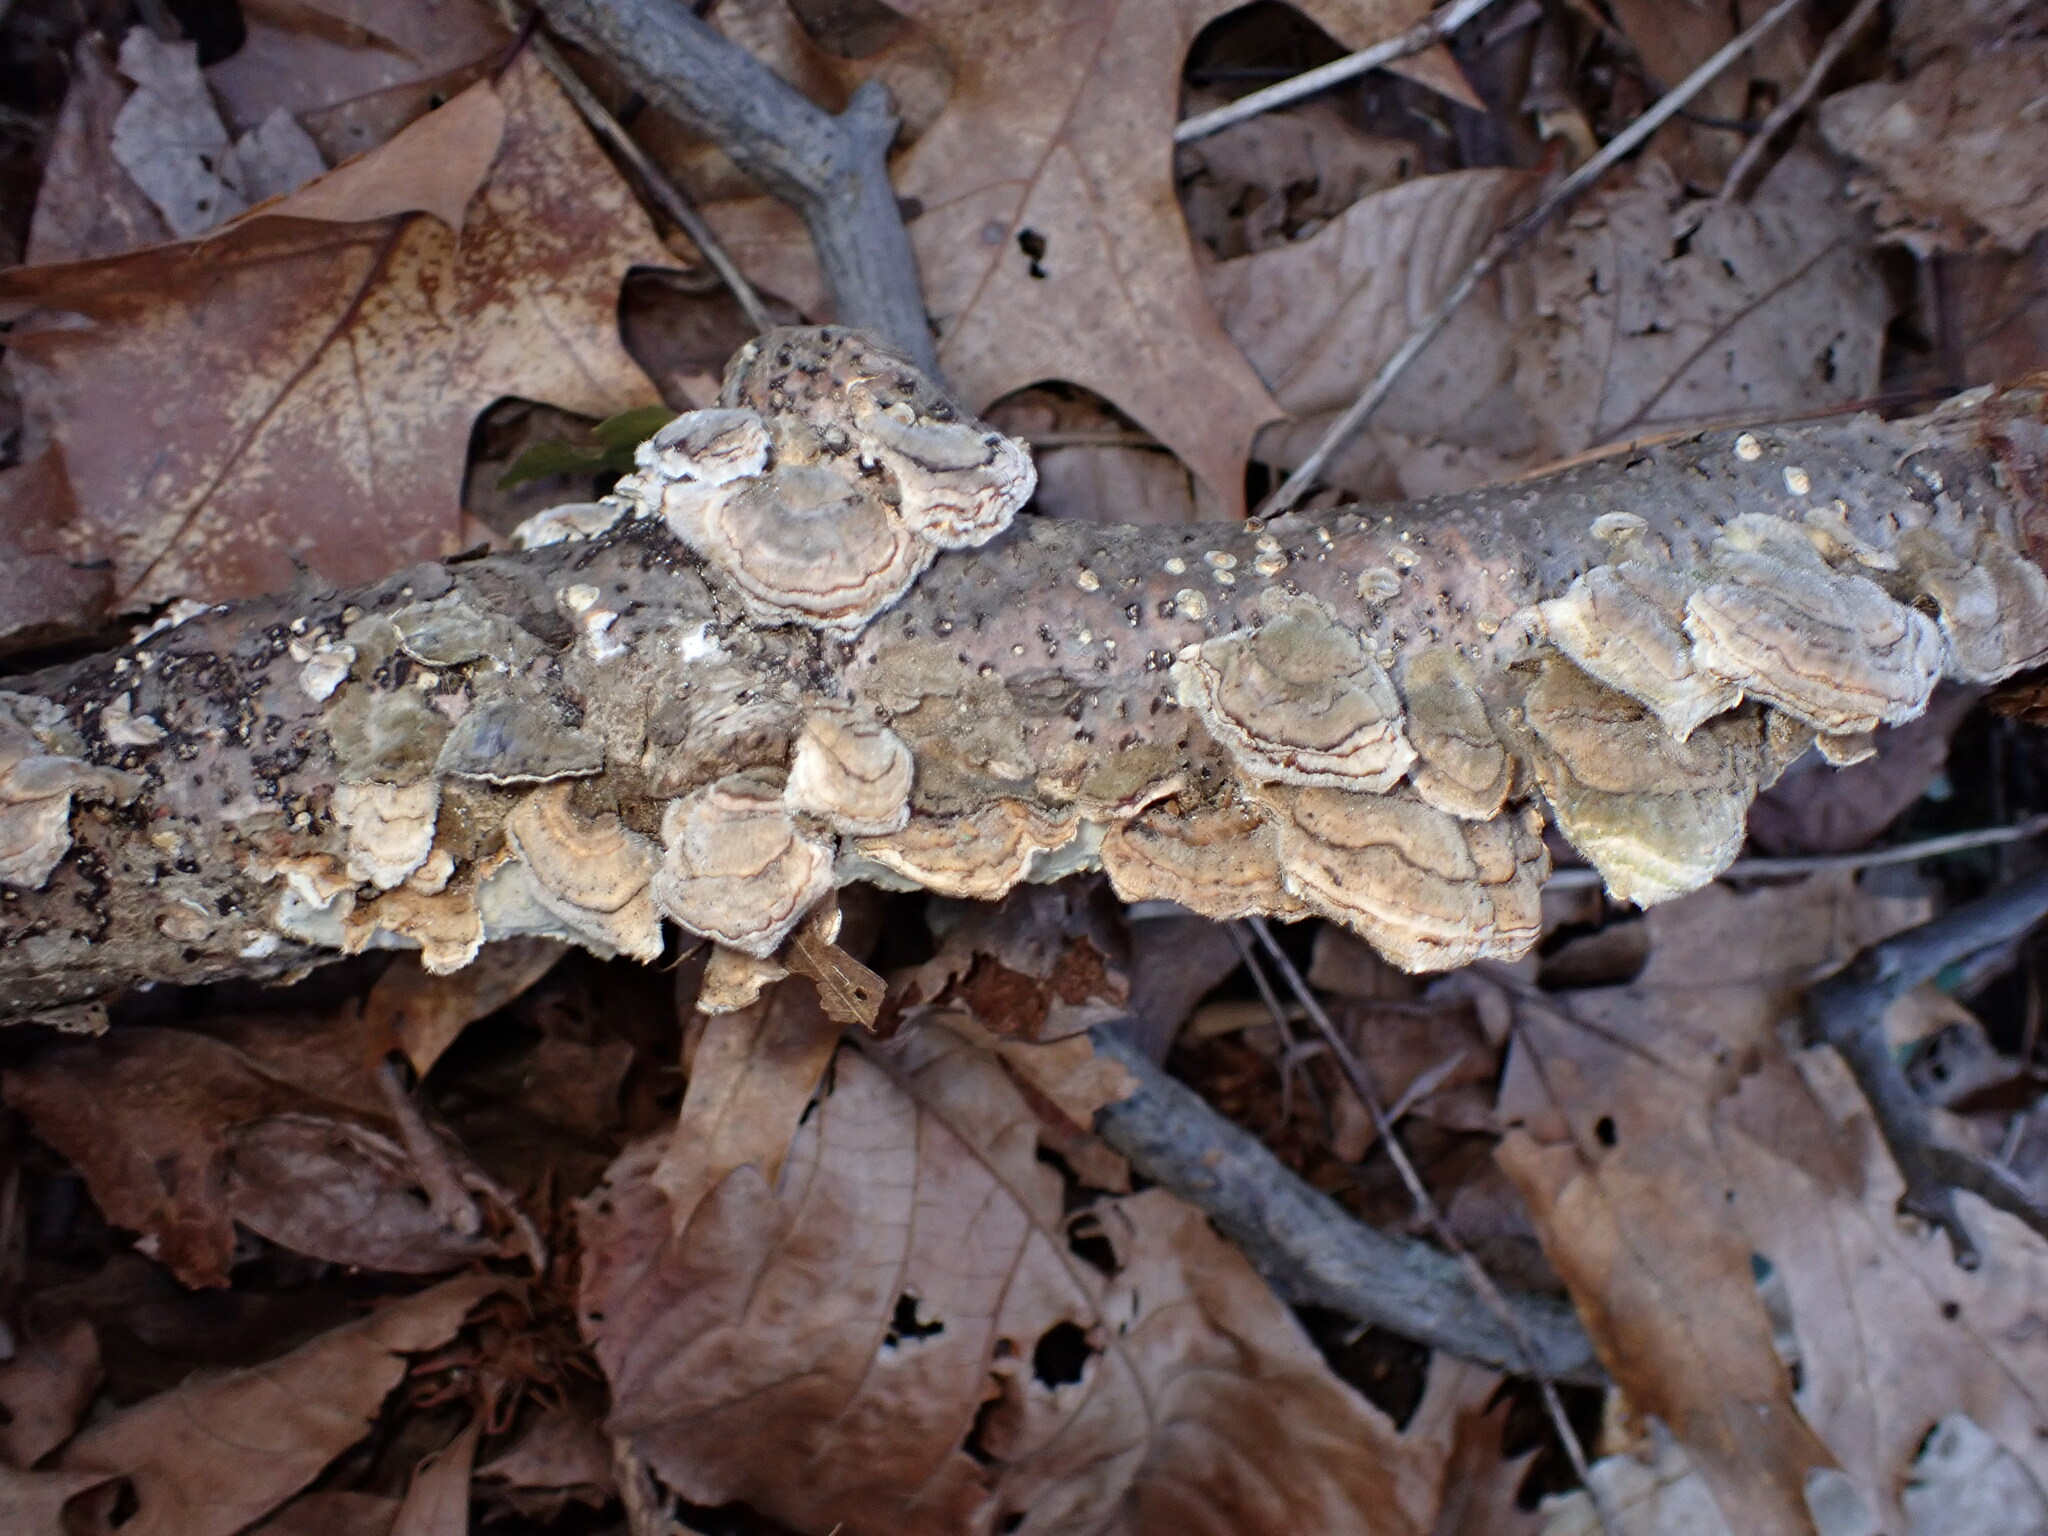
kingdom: Fungi
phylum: Basidiomycota
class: Agaricomycetes
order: Polyporales
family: Polyporaceae
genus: Trametes
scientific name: Trametes versicolor
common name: Turkeytail
